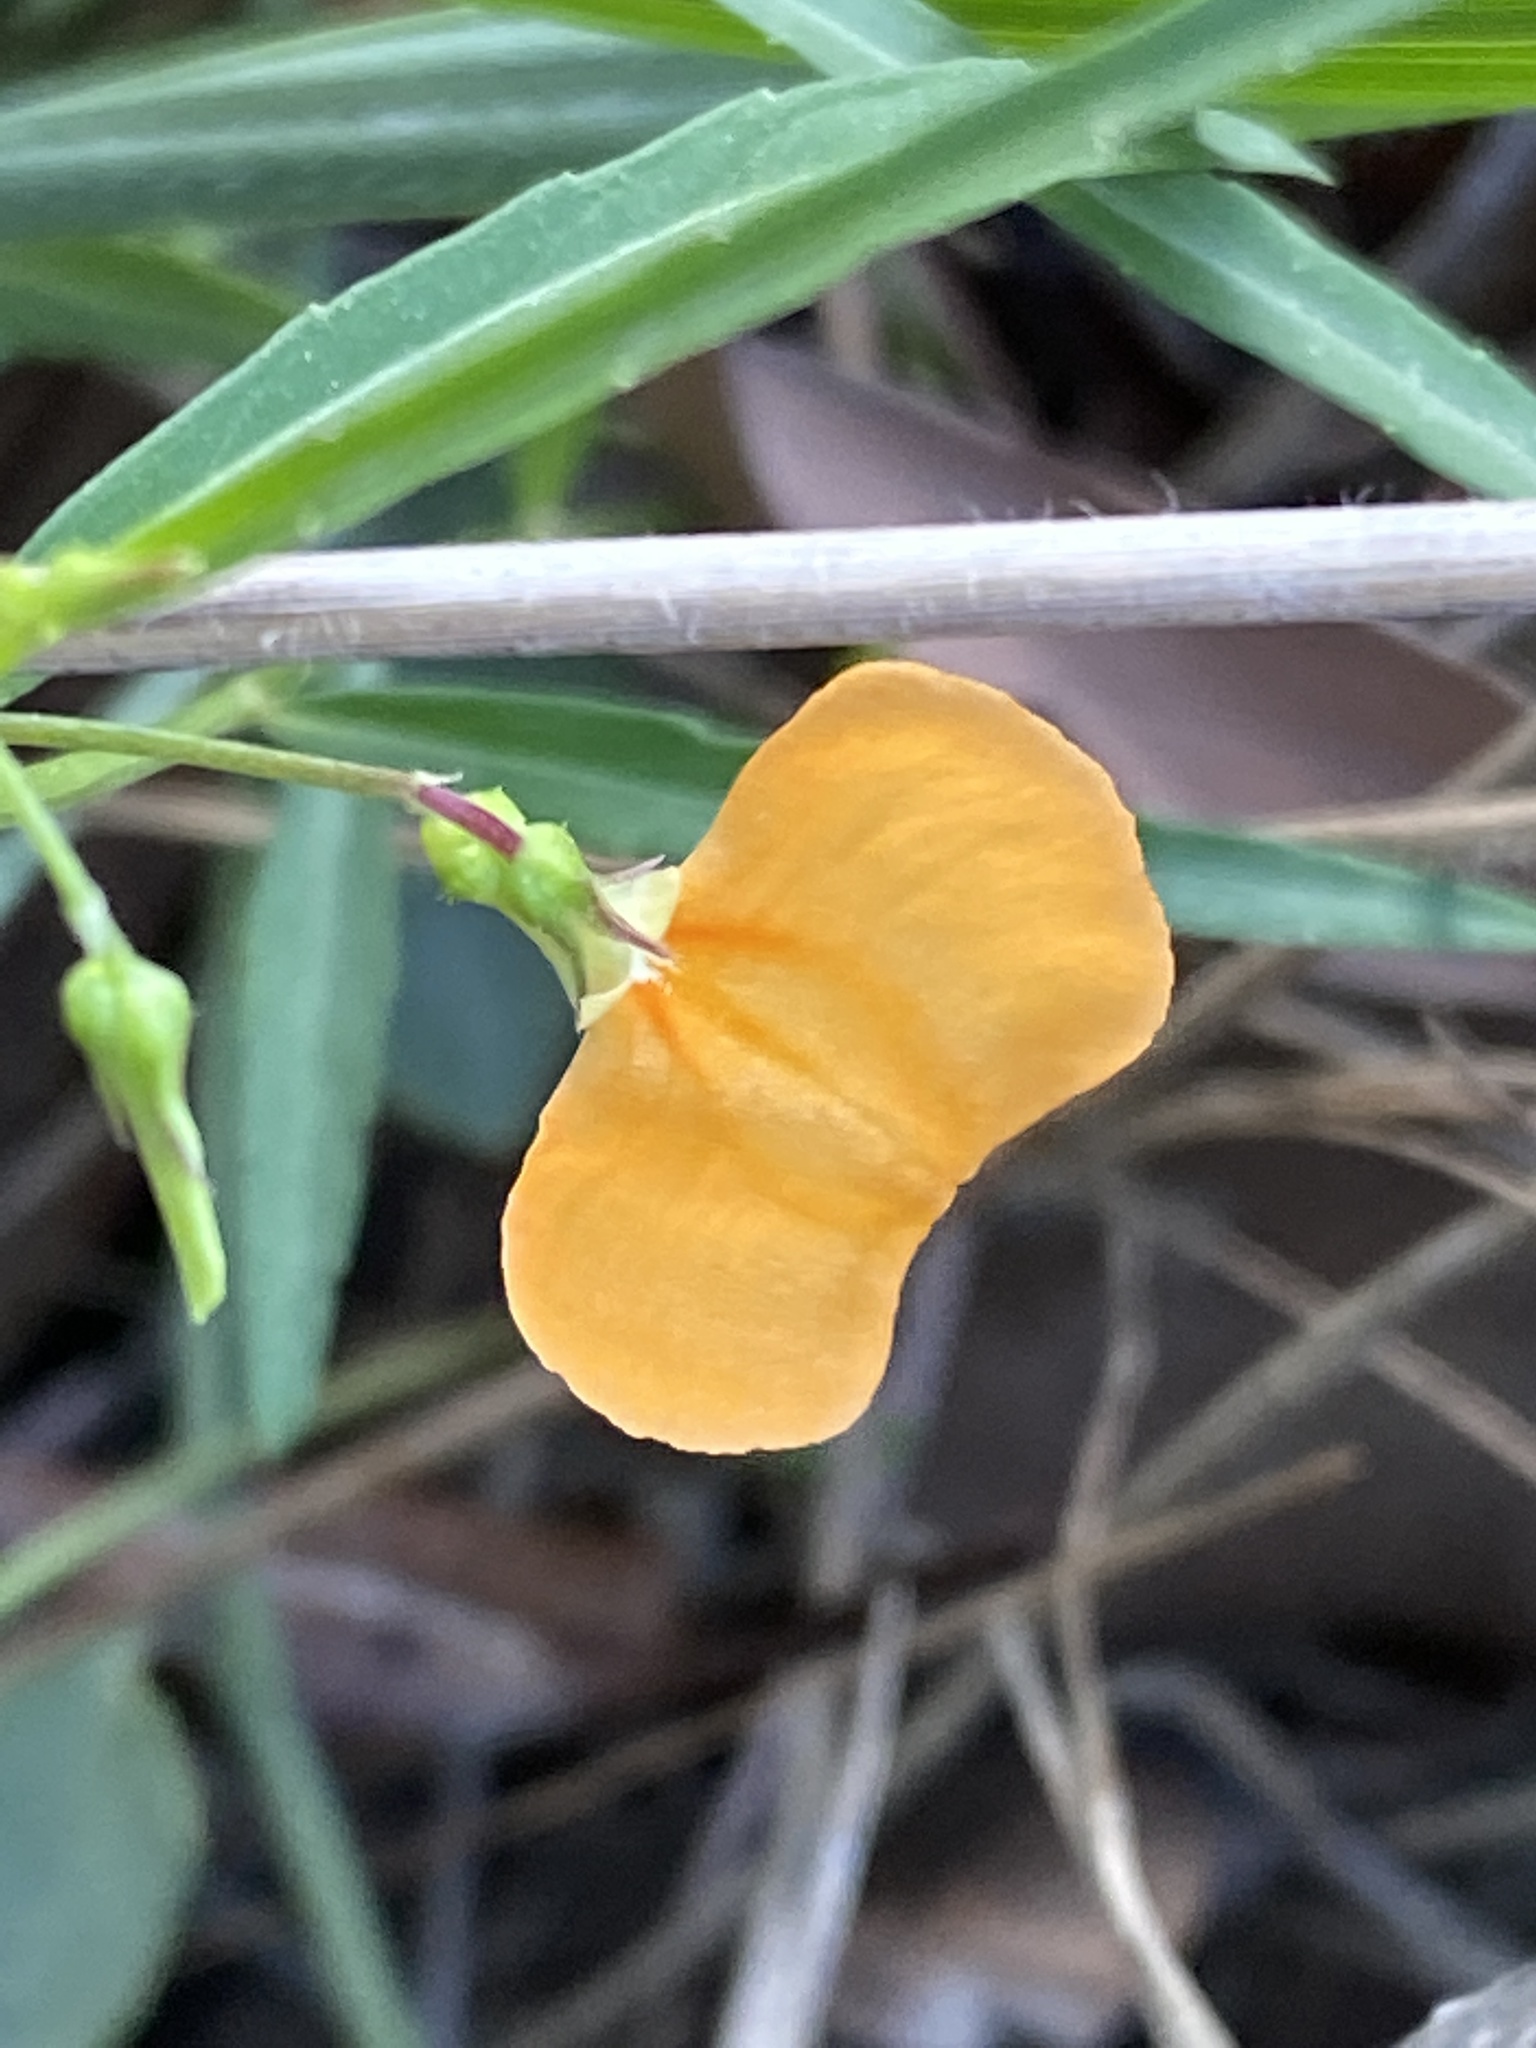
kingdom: Plantae
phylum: Tracheophyta
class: Magnoliopsida
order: Malpighiales
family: Violaceae
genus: Pigea
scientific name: Pigea stellarioides
